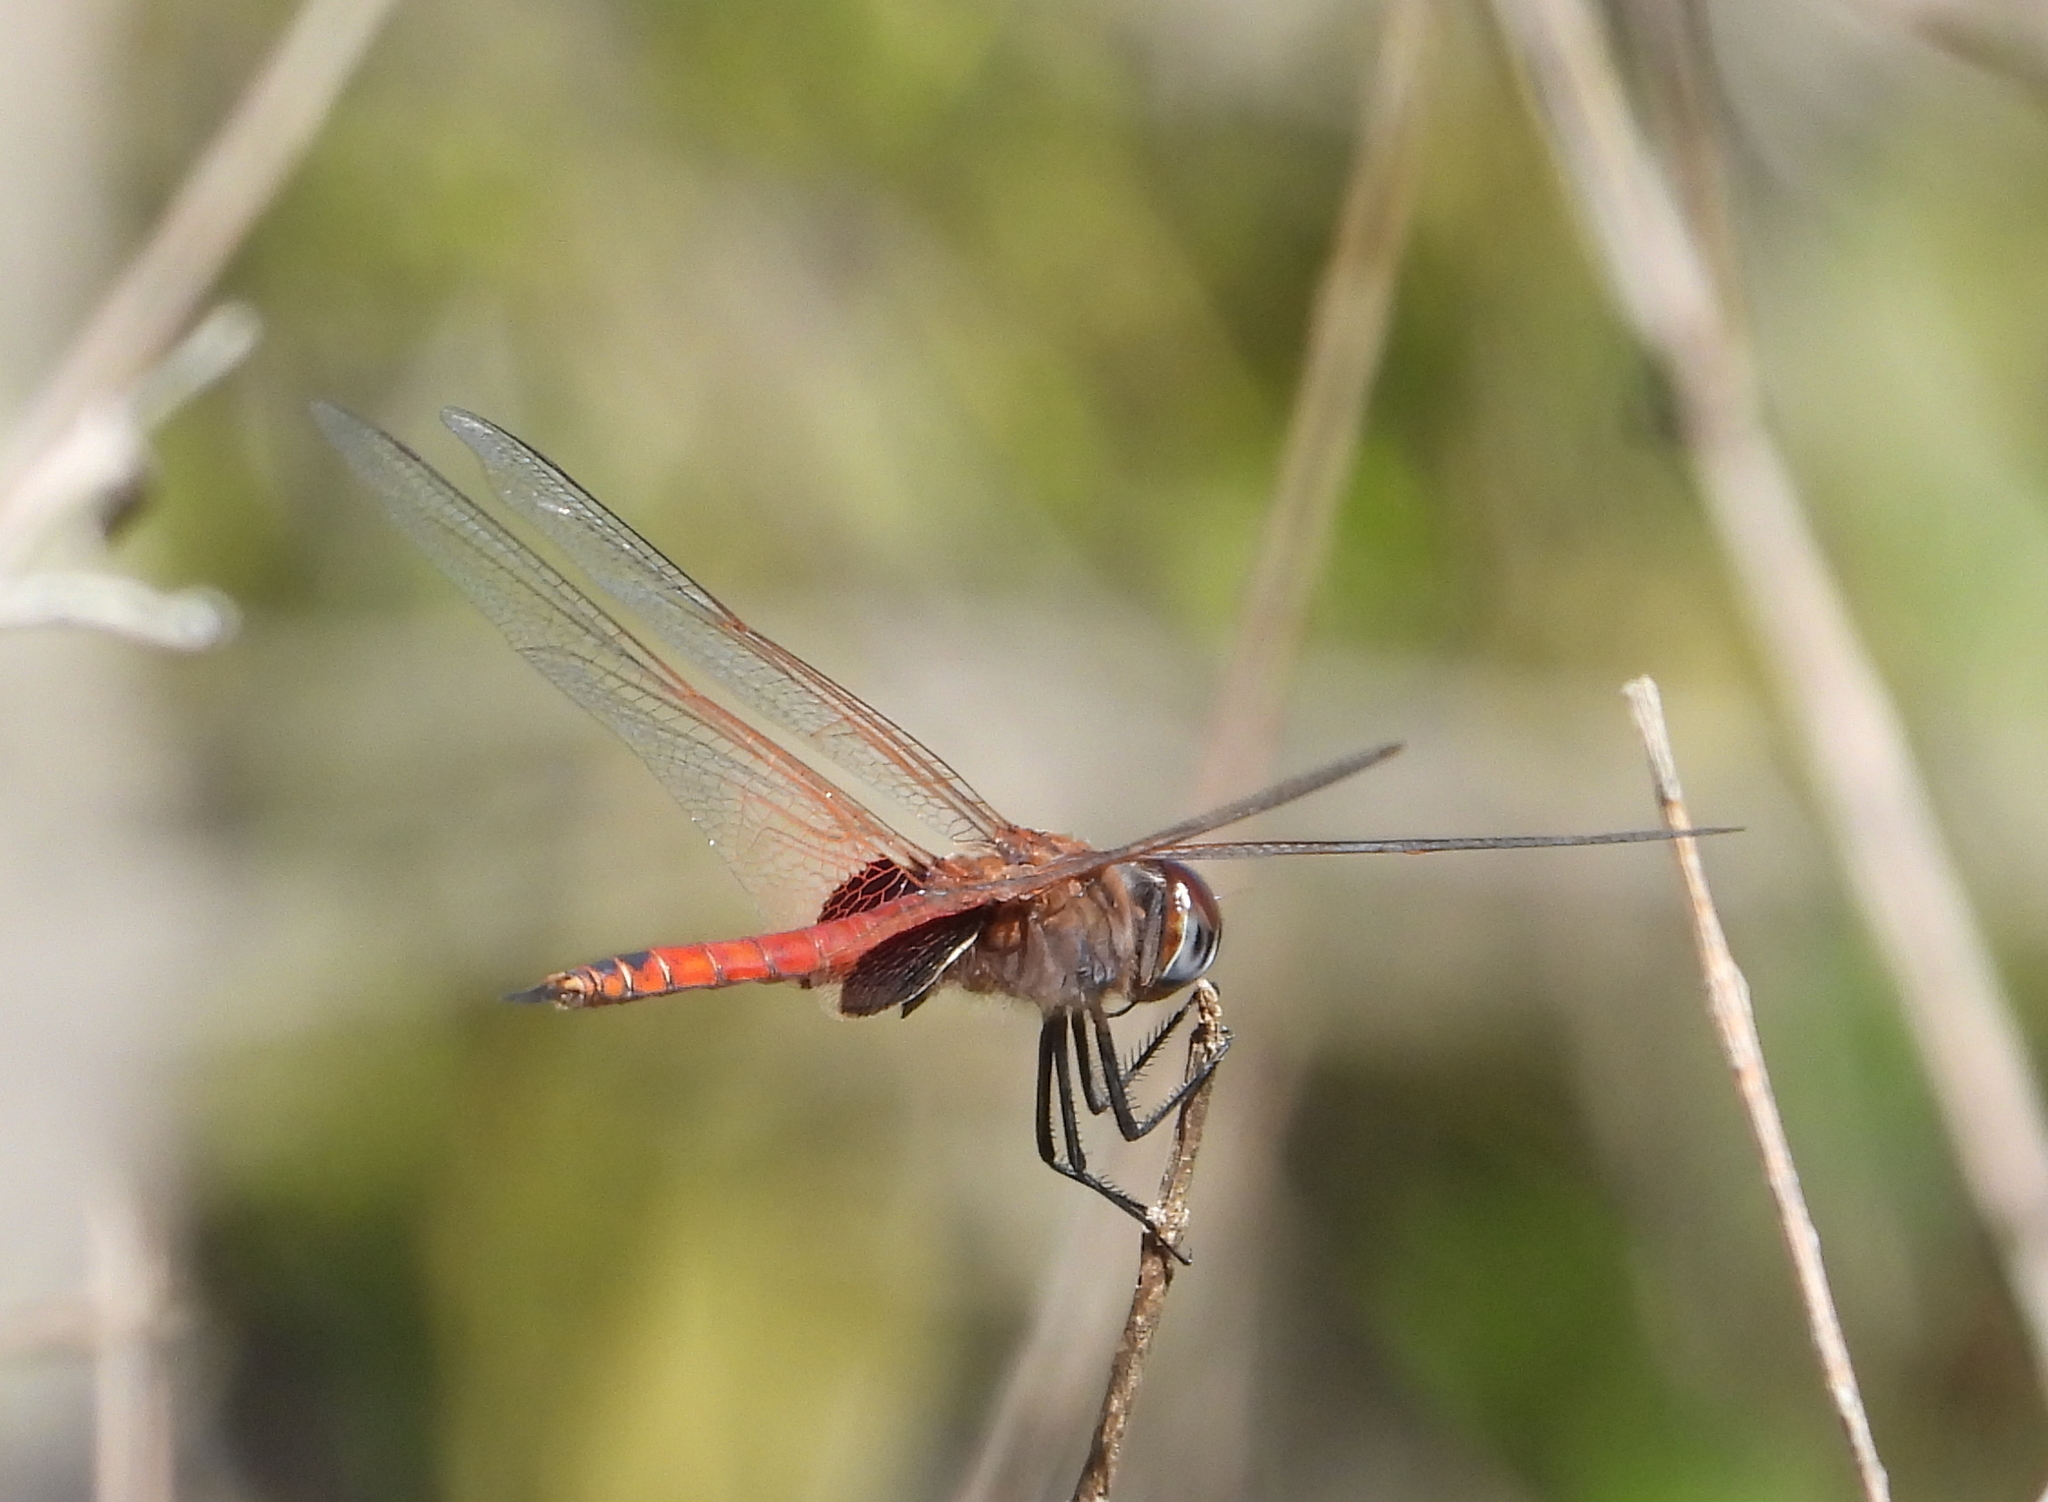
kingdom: Animalia
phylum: Arthropoda
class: Insecta
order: Odonata
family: Libellulidae
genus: Tramea
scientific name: Tramea limbata
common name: Ferruginous glider
